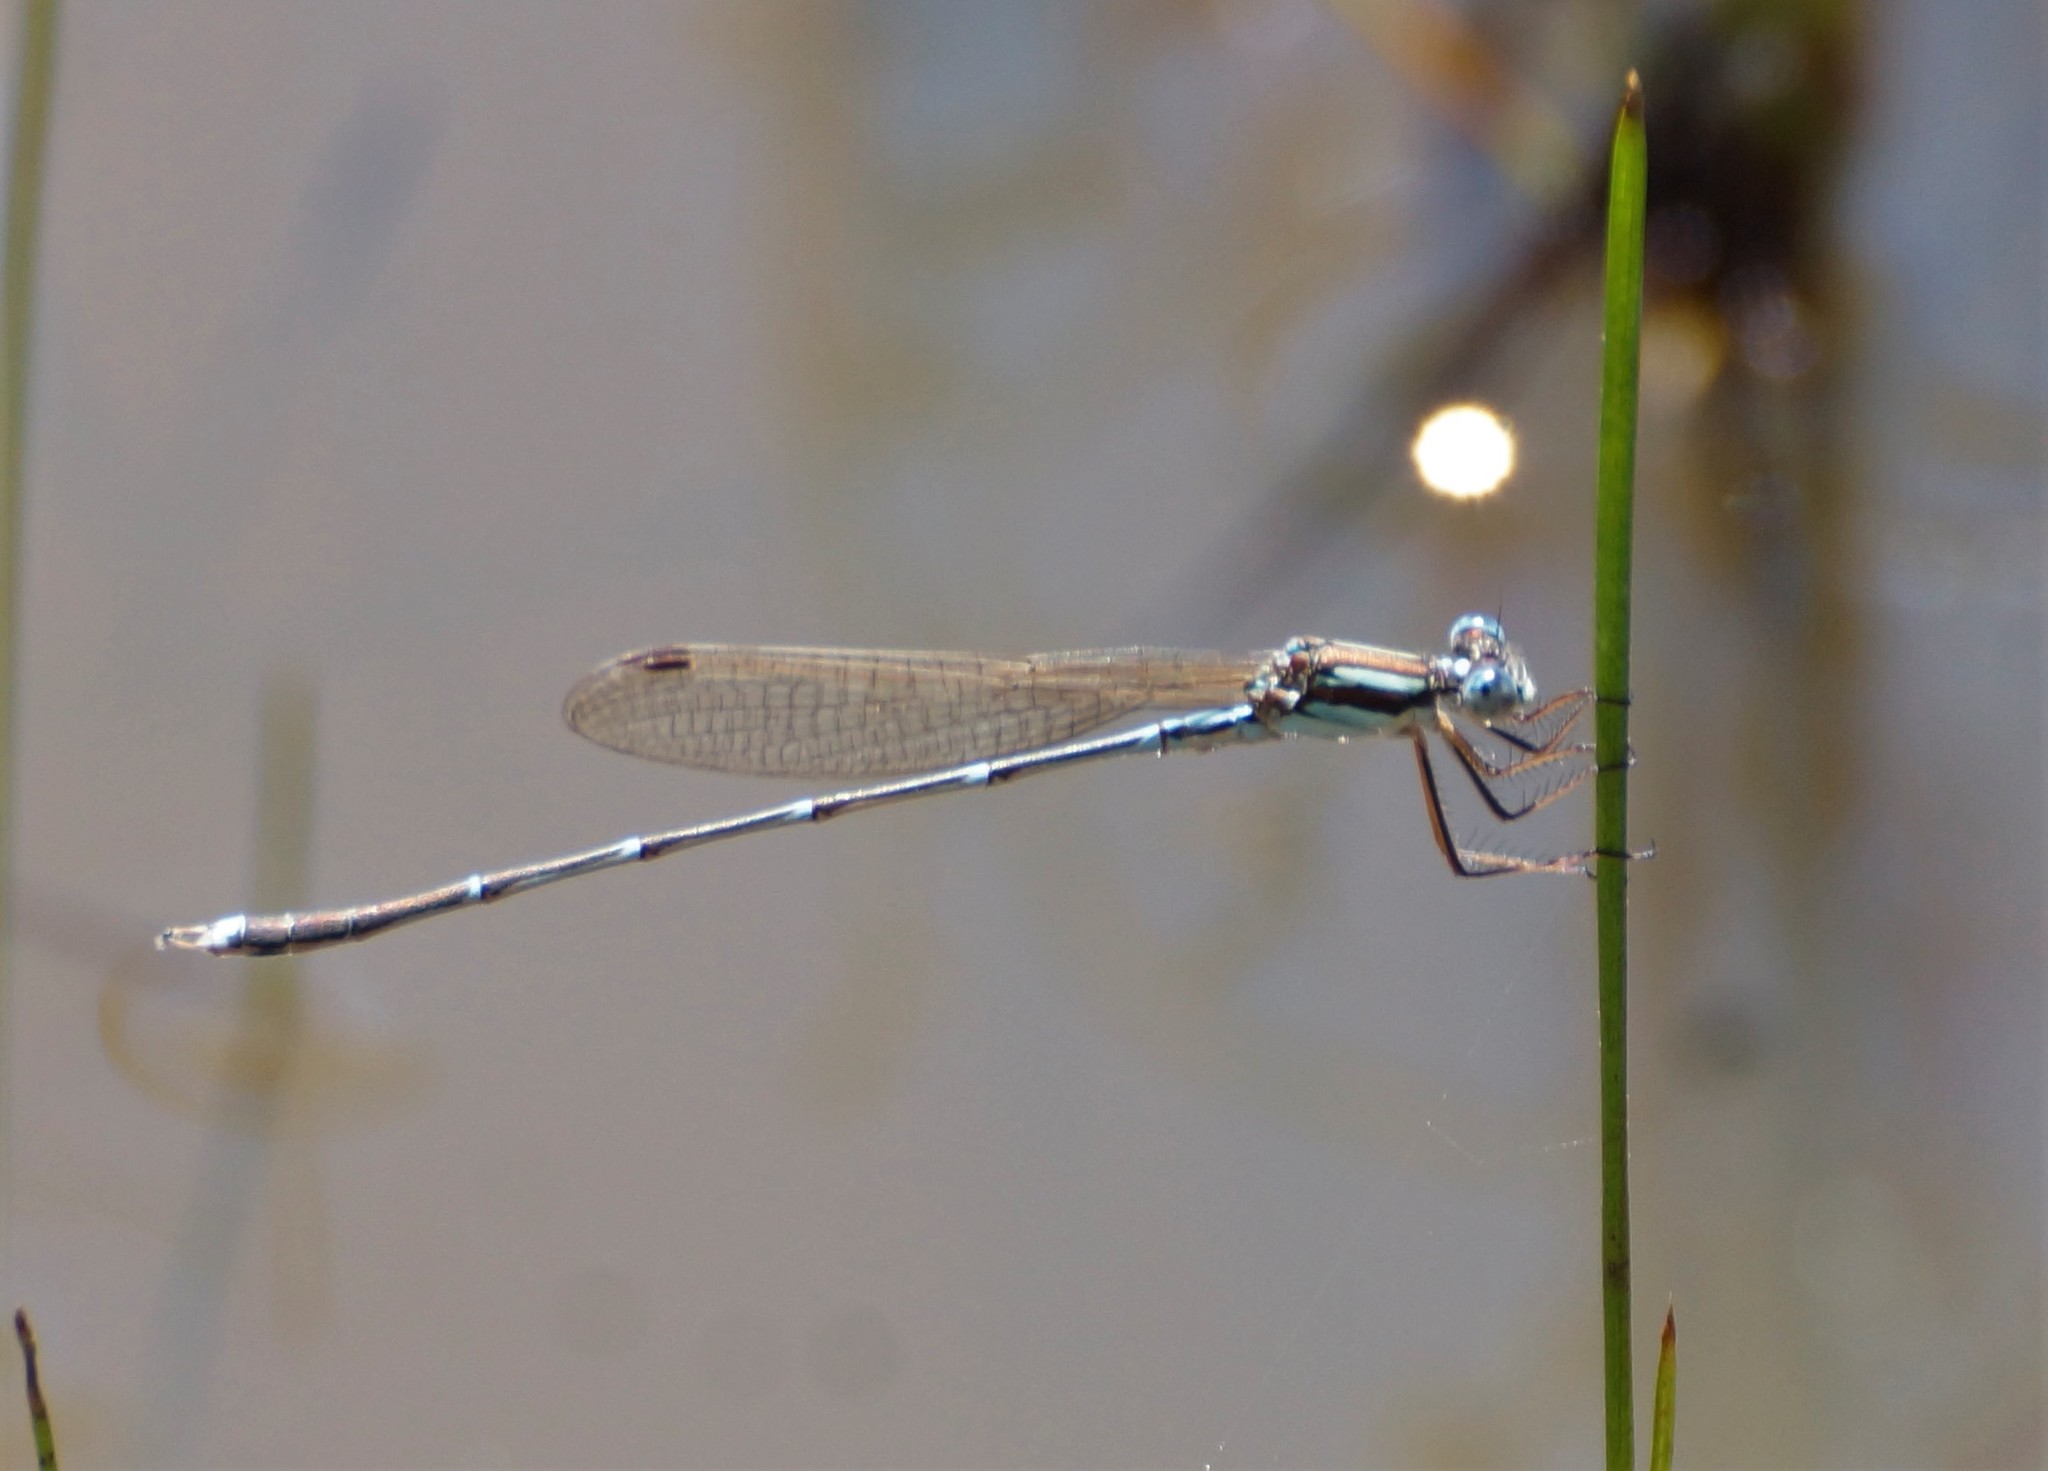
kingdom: Animalia
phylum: Arthropoda
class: Insecta
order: Odonata
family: Lestidae
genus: Austrolestes
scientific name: Austrolestes analis
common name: Slender ringtail
